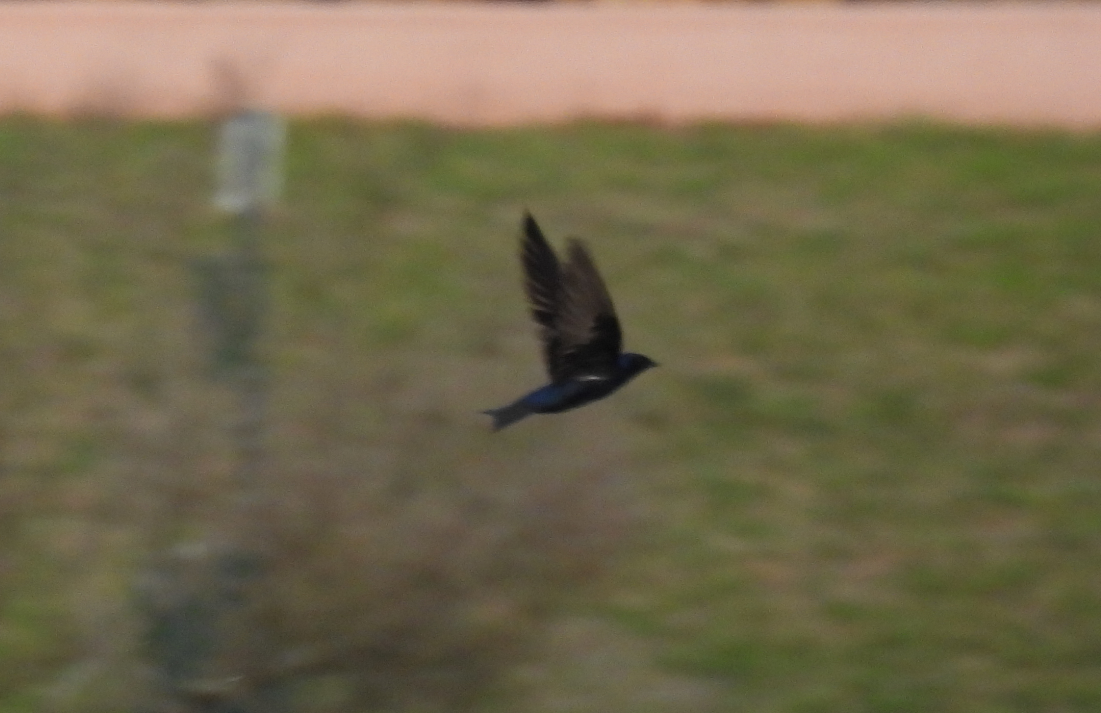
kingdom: Animalia
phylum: Chordata
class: Aves
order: Passeriformes
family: Hirundinidae
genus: Progne
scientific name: Progne subis
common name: Purple martin
